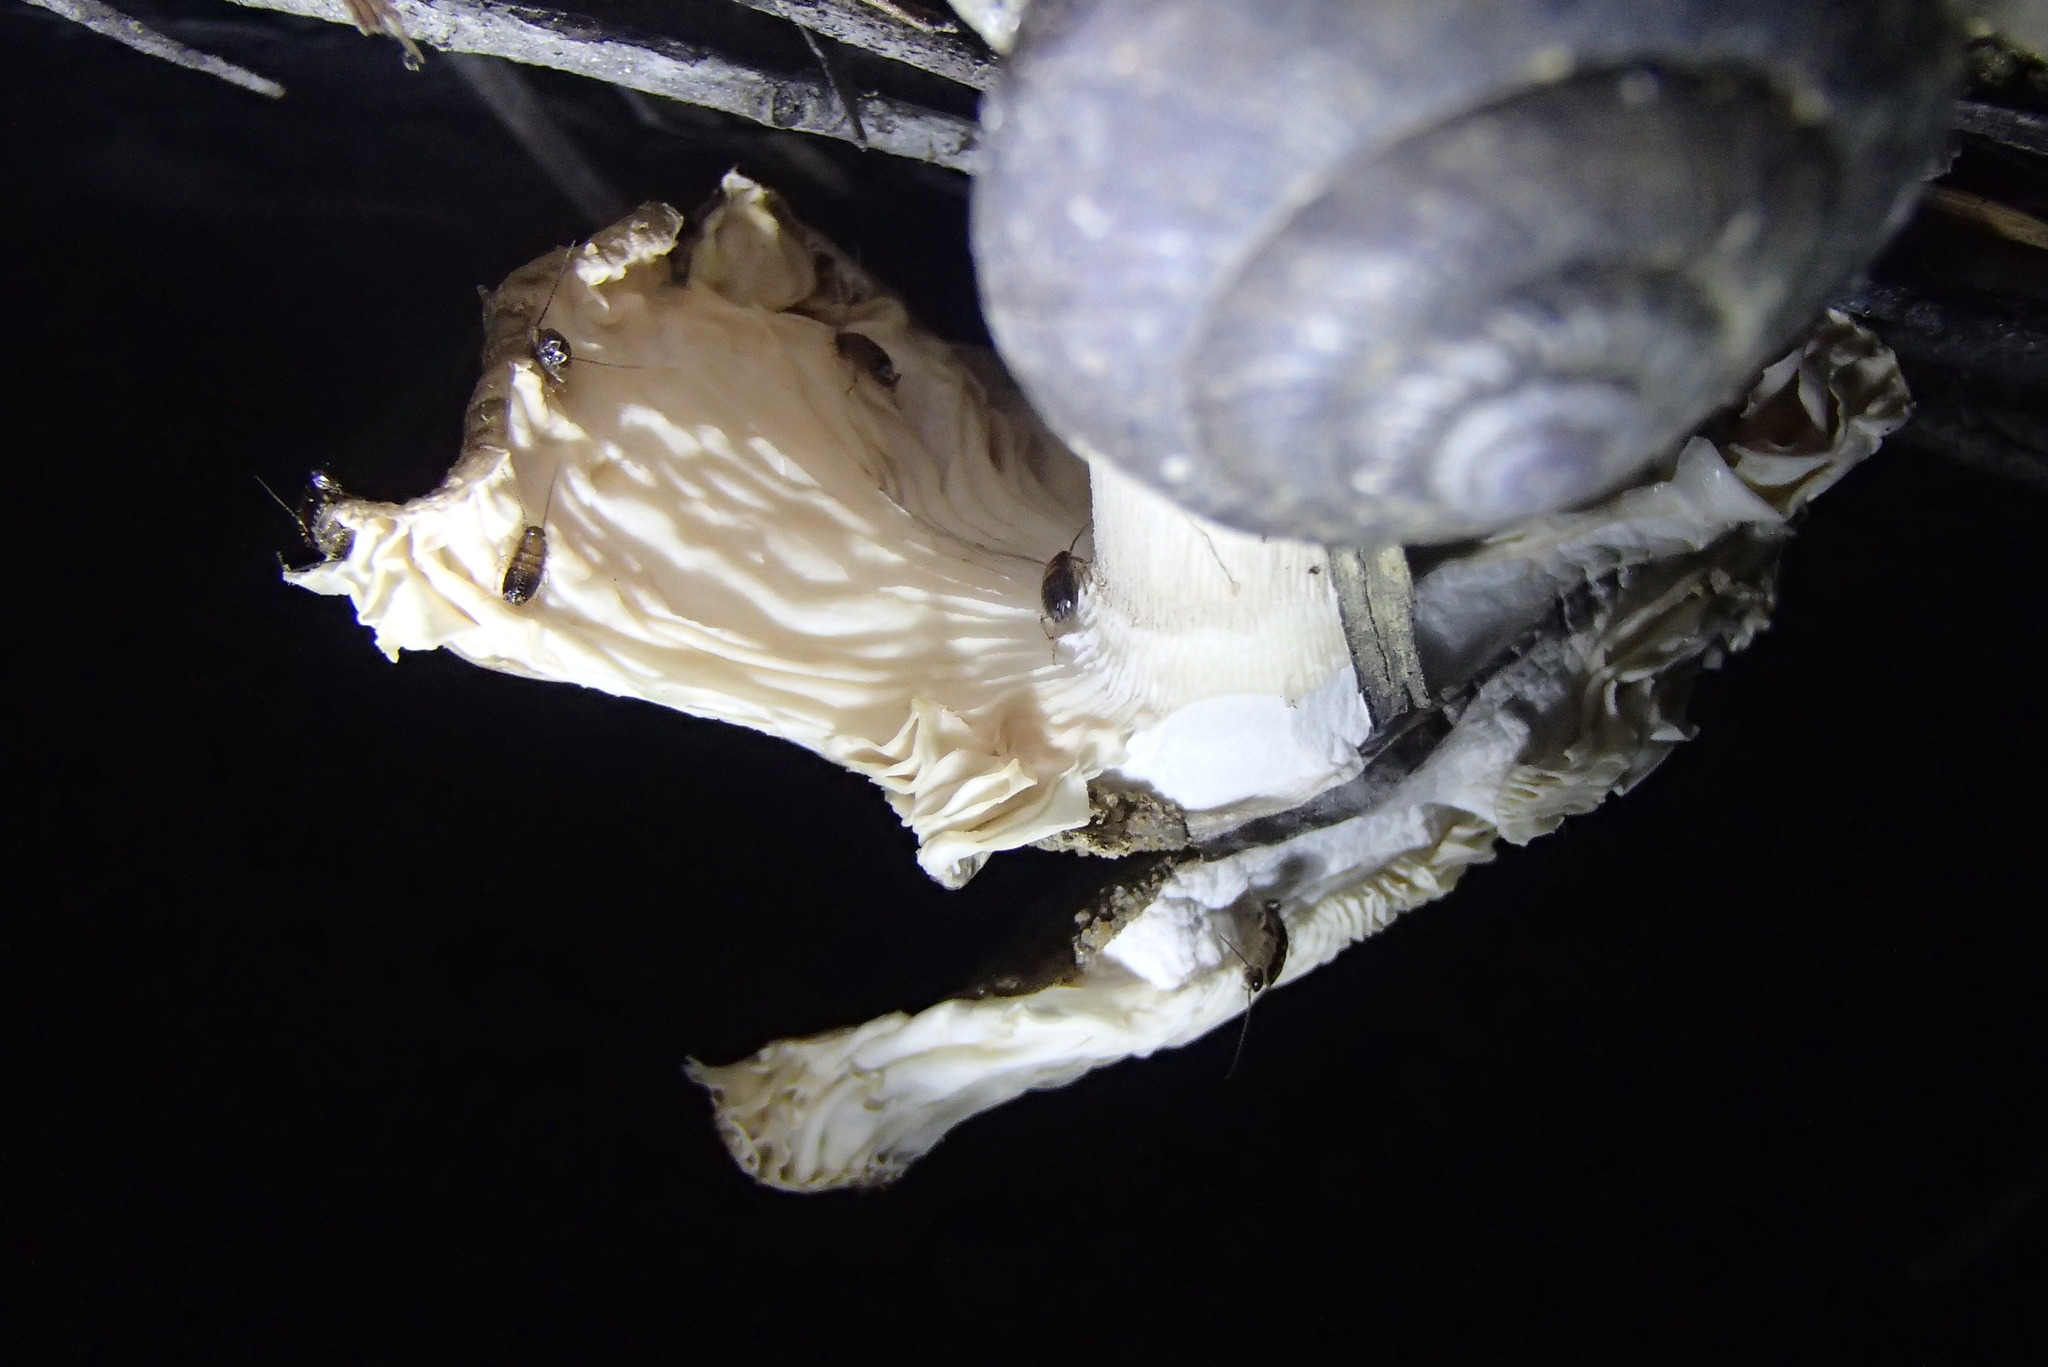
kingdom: Animalia
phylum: Mollusca
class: Gastropoda
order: Stylommatophora
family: Camaenidae
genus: Pommerhelix
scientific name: Pommerhelix monacha
